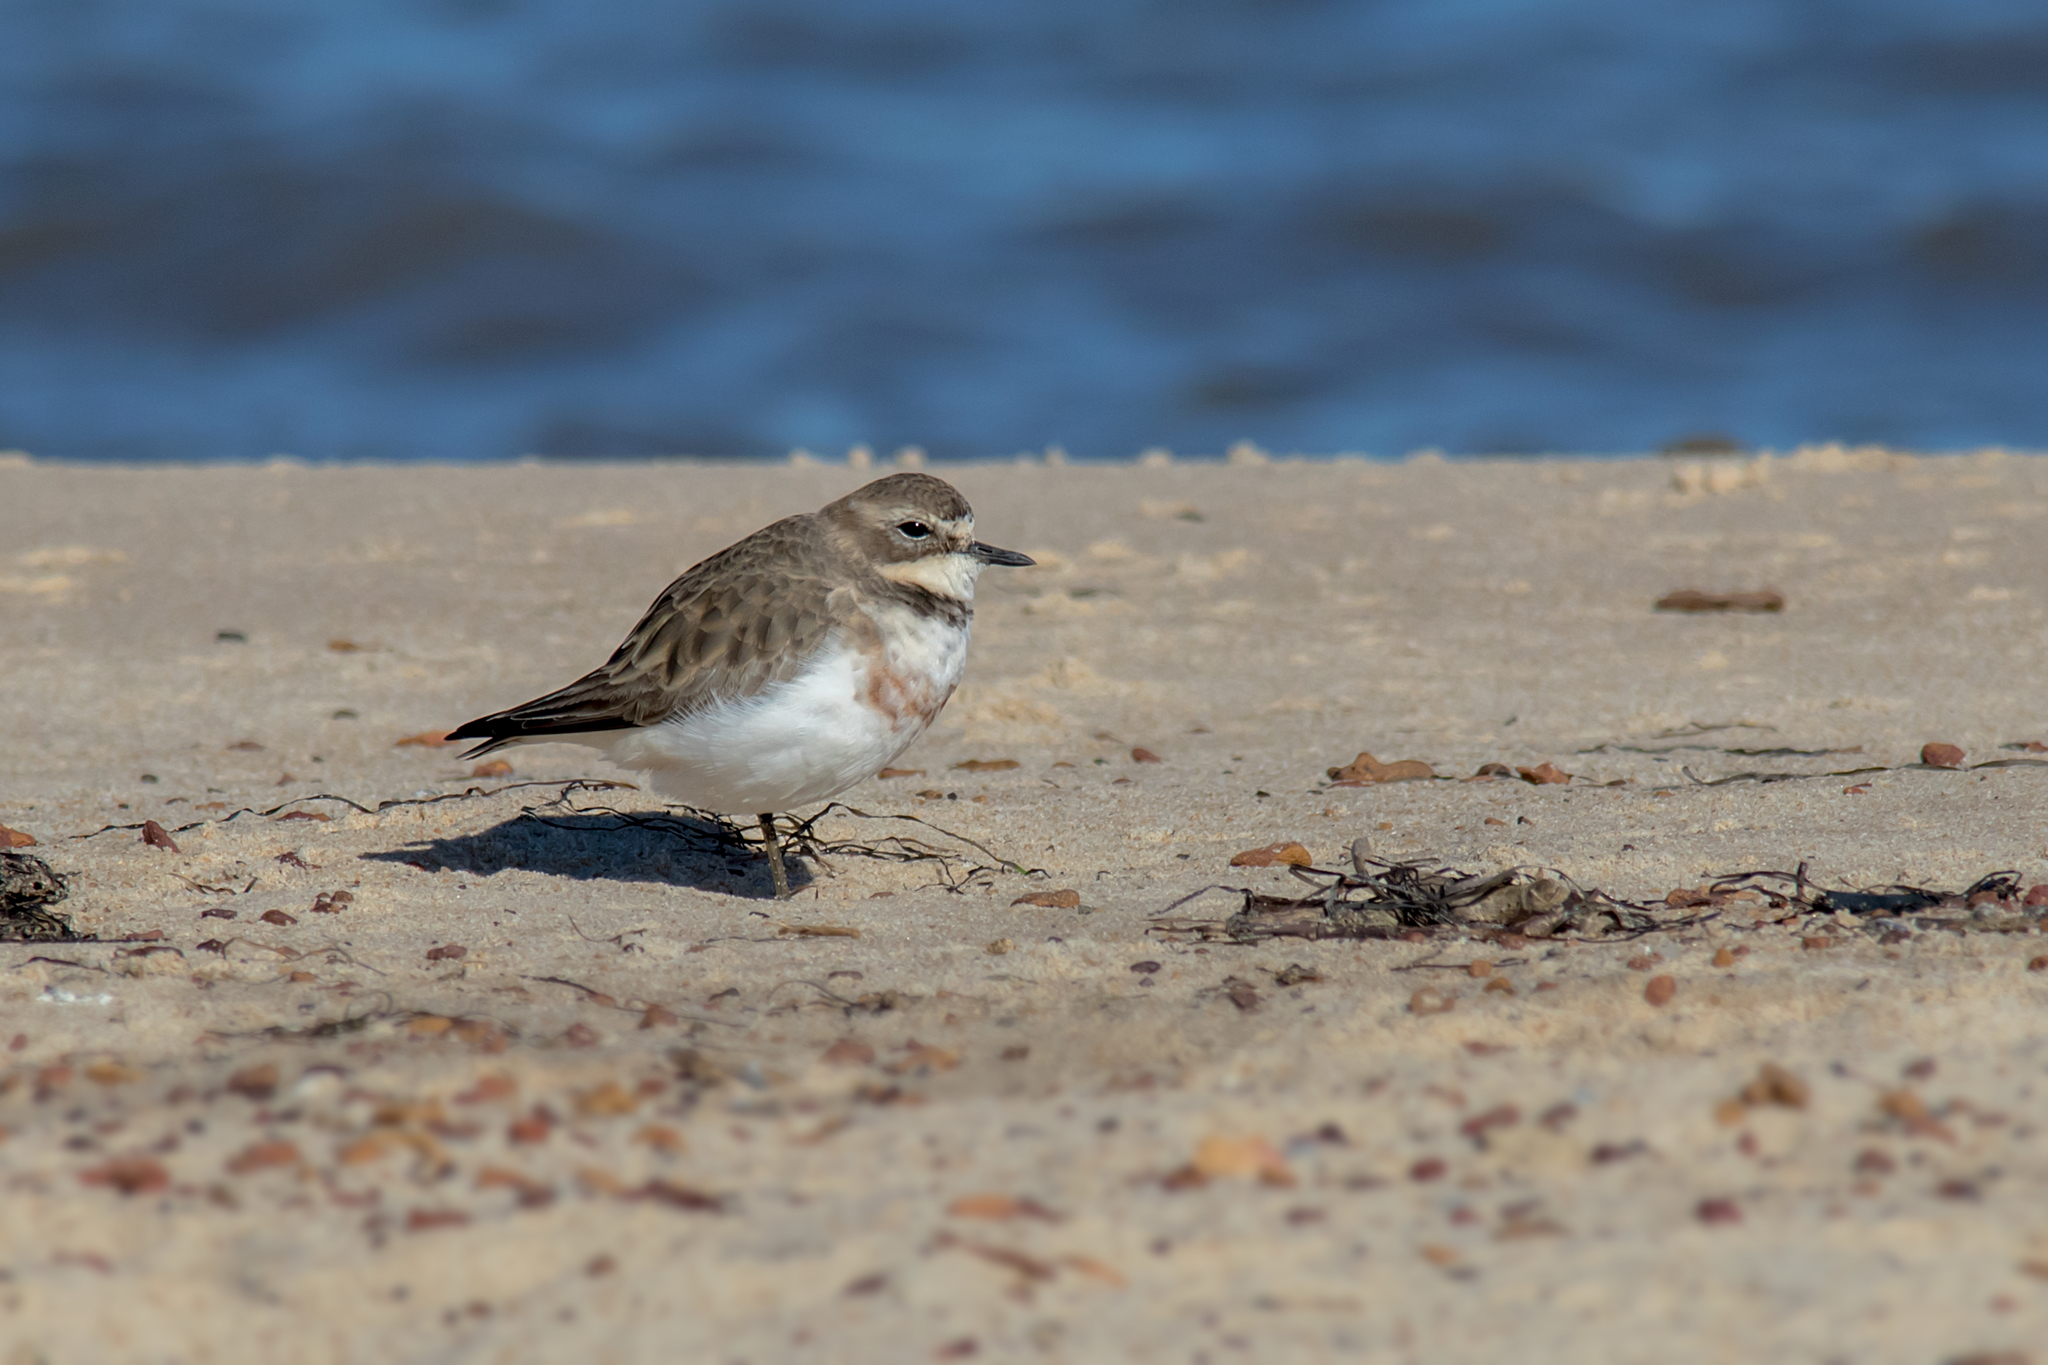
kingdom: Animalia
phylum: Chordata
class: Aves
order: Charadriiformes
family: Charadriidae
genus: Anarhynchus
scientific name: Anarhynchus
